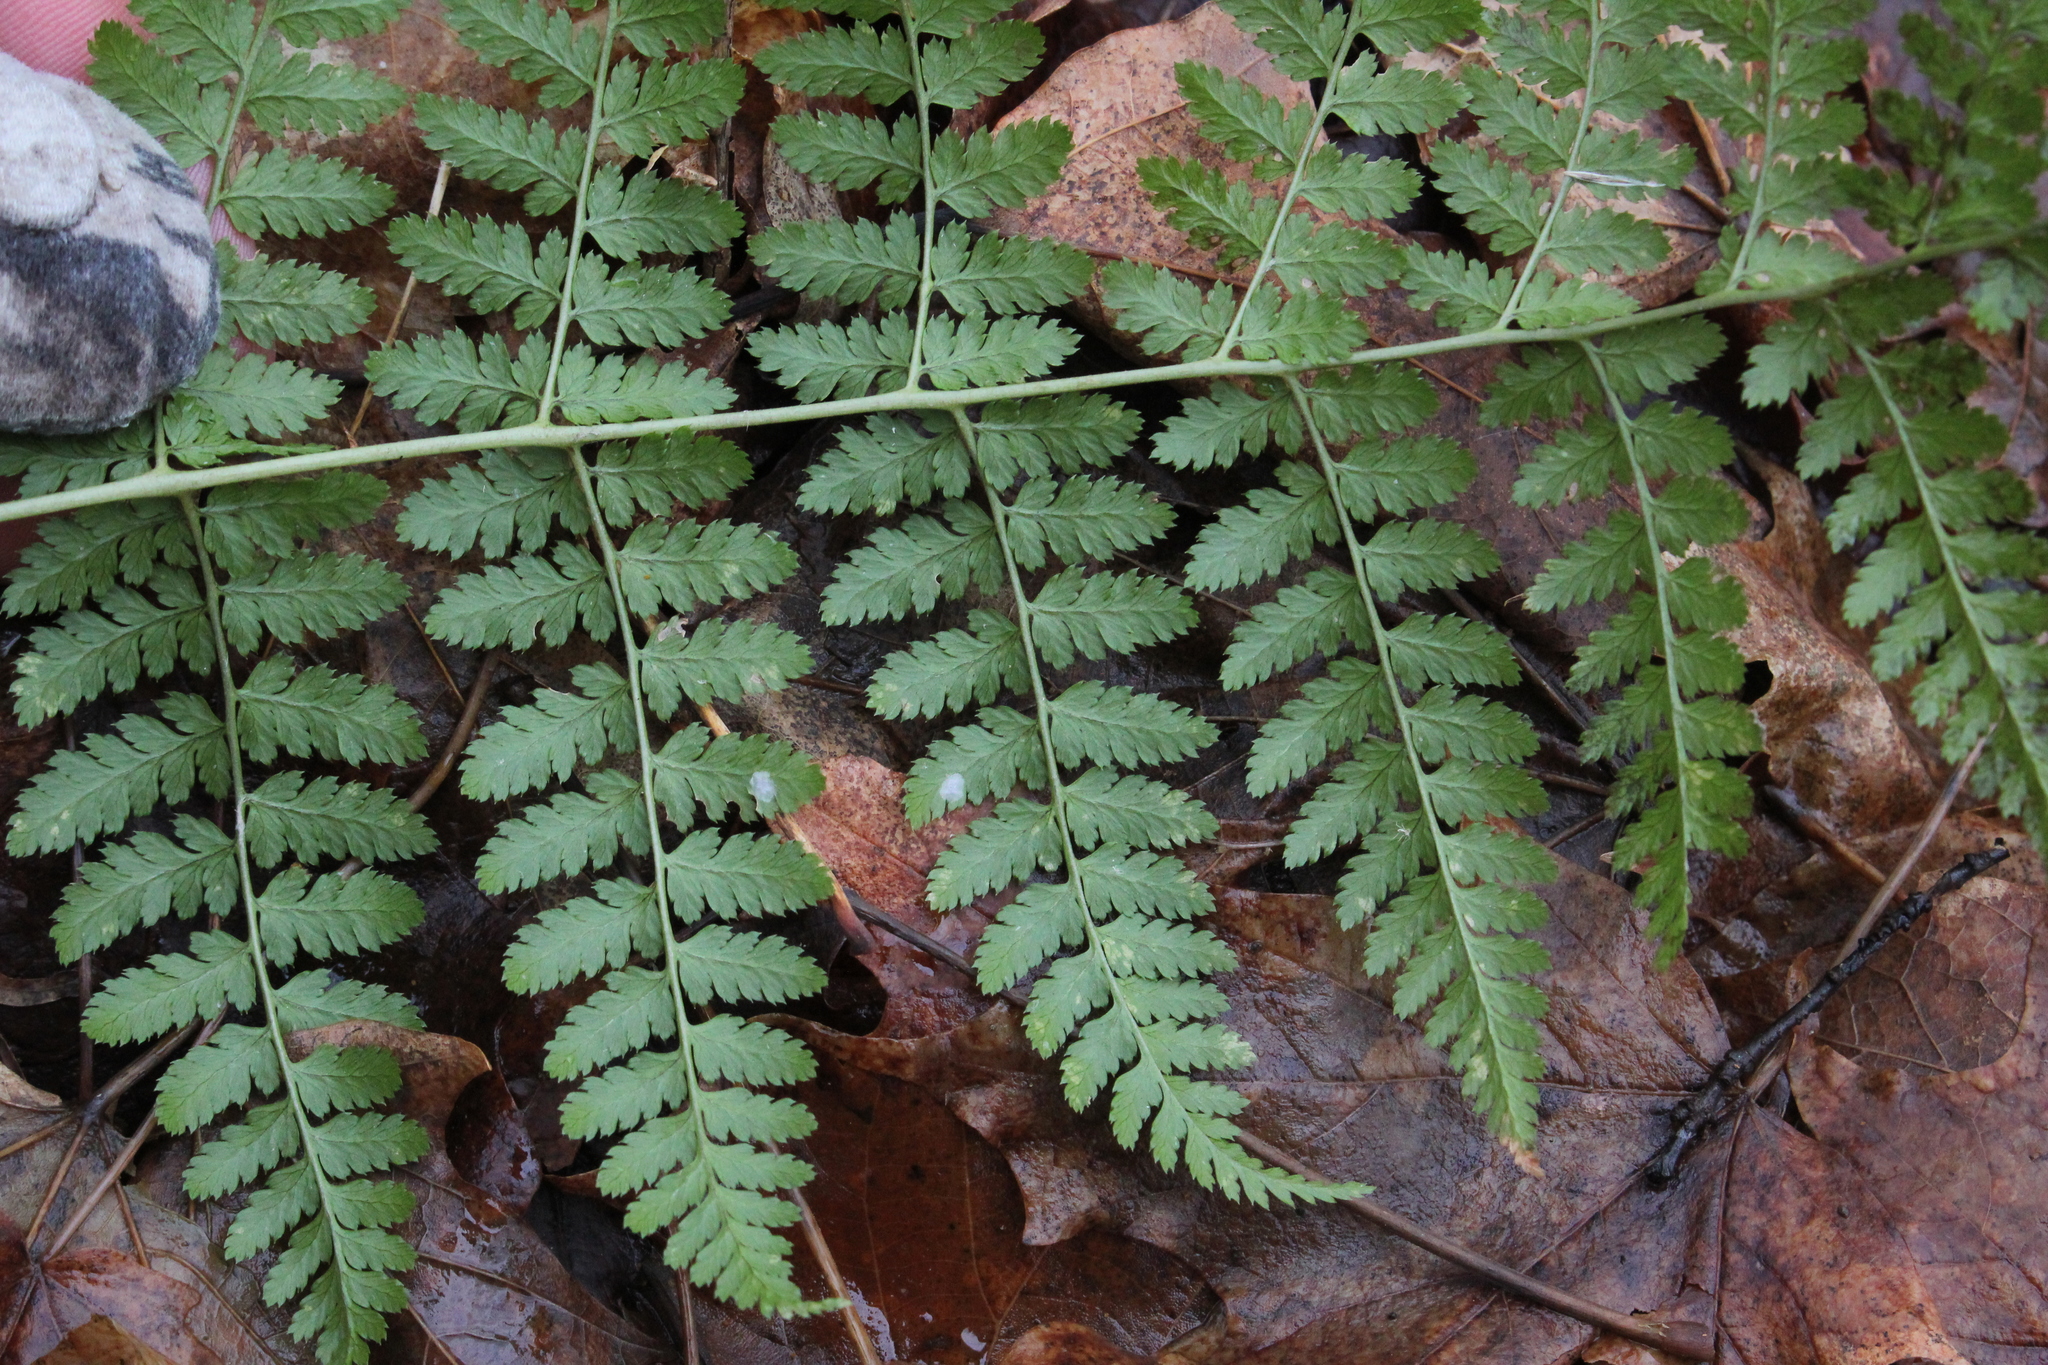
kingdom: Plantae
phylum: Tracheophyta
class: Polypodiopsida
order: Polypodiales
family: Dryopteridaceae
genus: Dryopteris
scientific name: Dryopteris intermedia
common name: Evergreen wood fern
